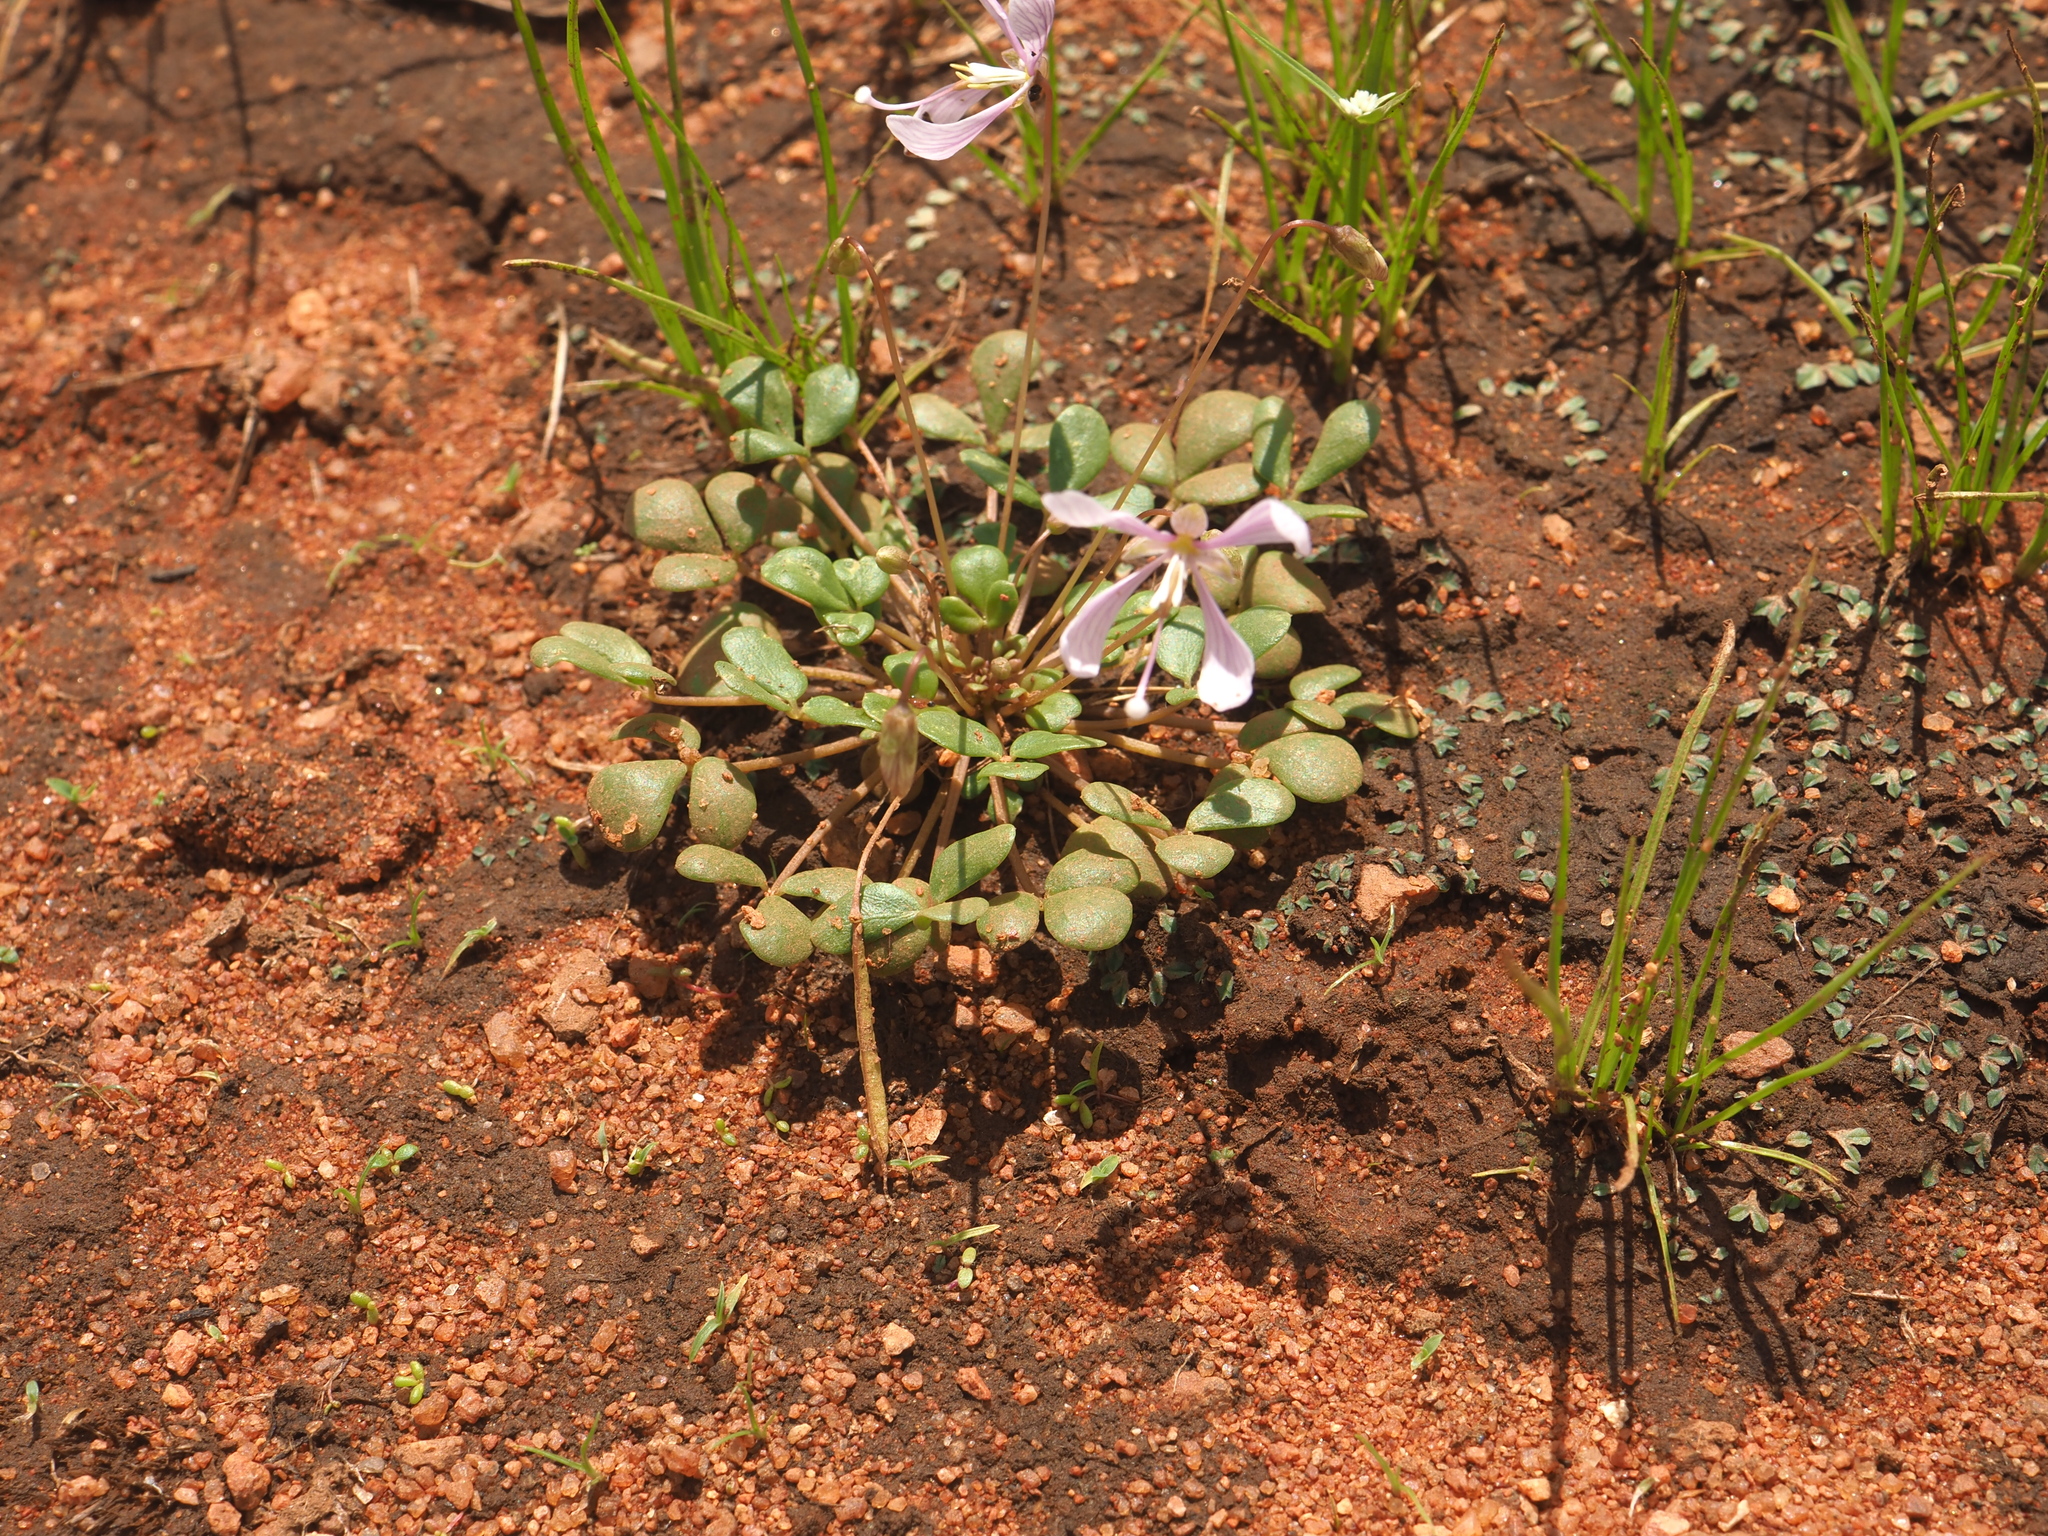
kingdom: Plantae
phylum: Tracheophyta
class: Magnoliopsida
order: Brassicales
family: Cleomaceae
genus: Areocleome
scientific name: Areocleome oxalidea
